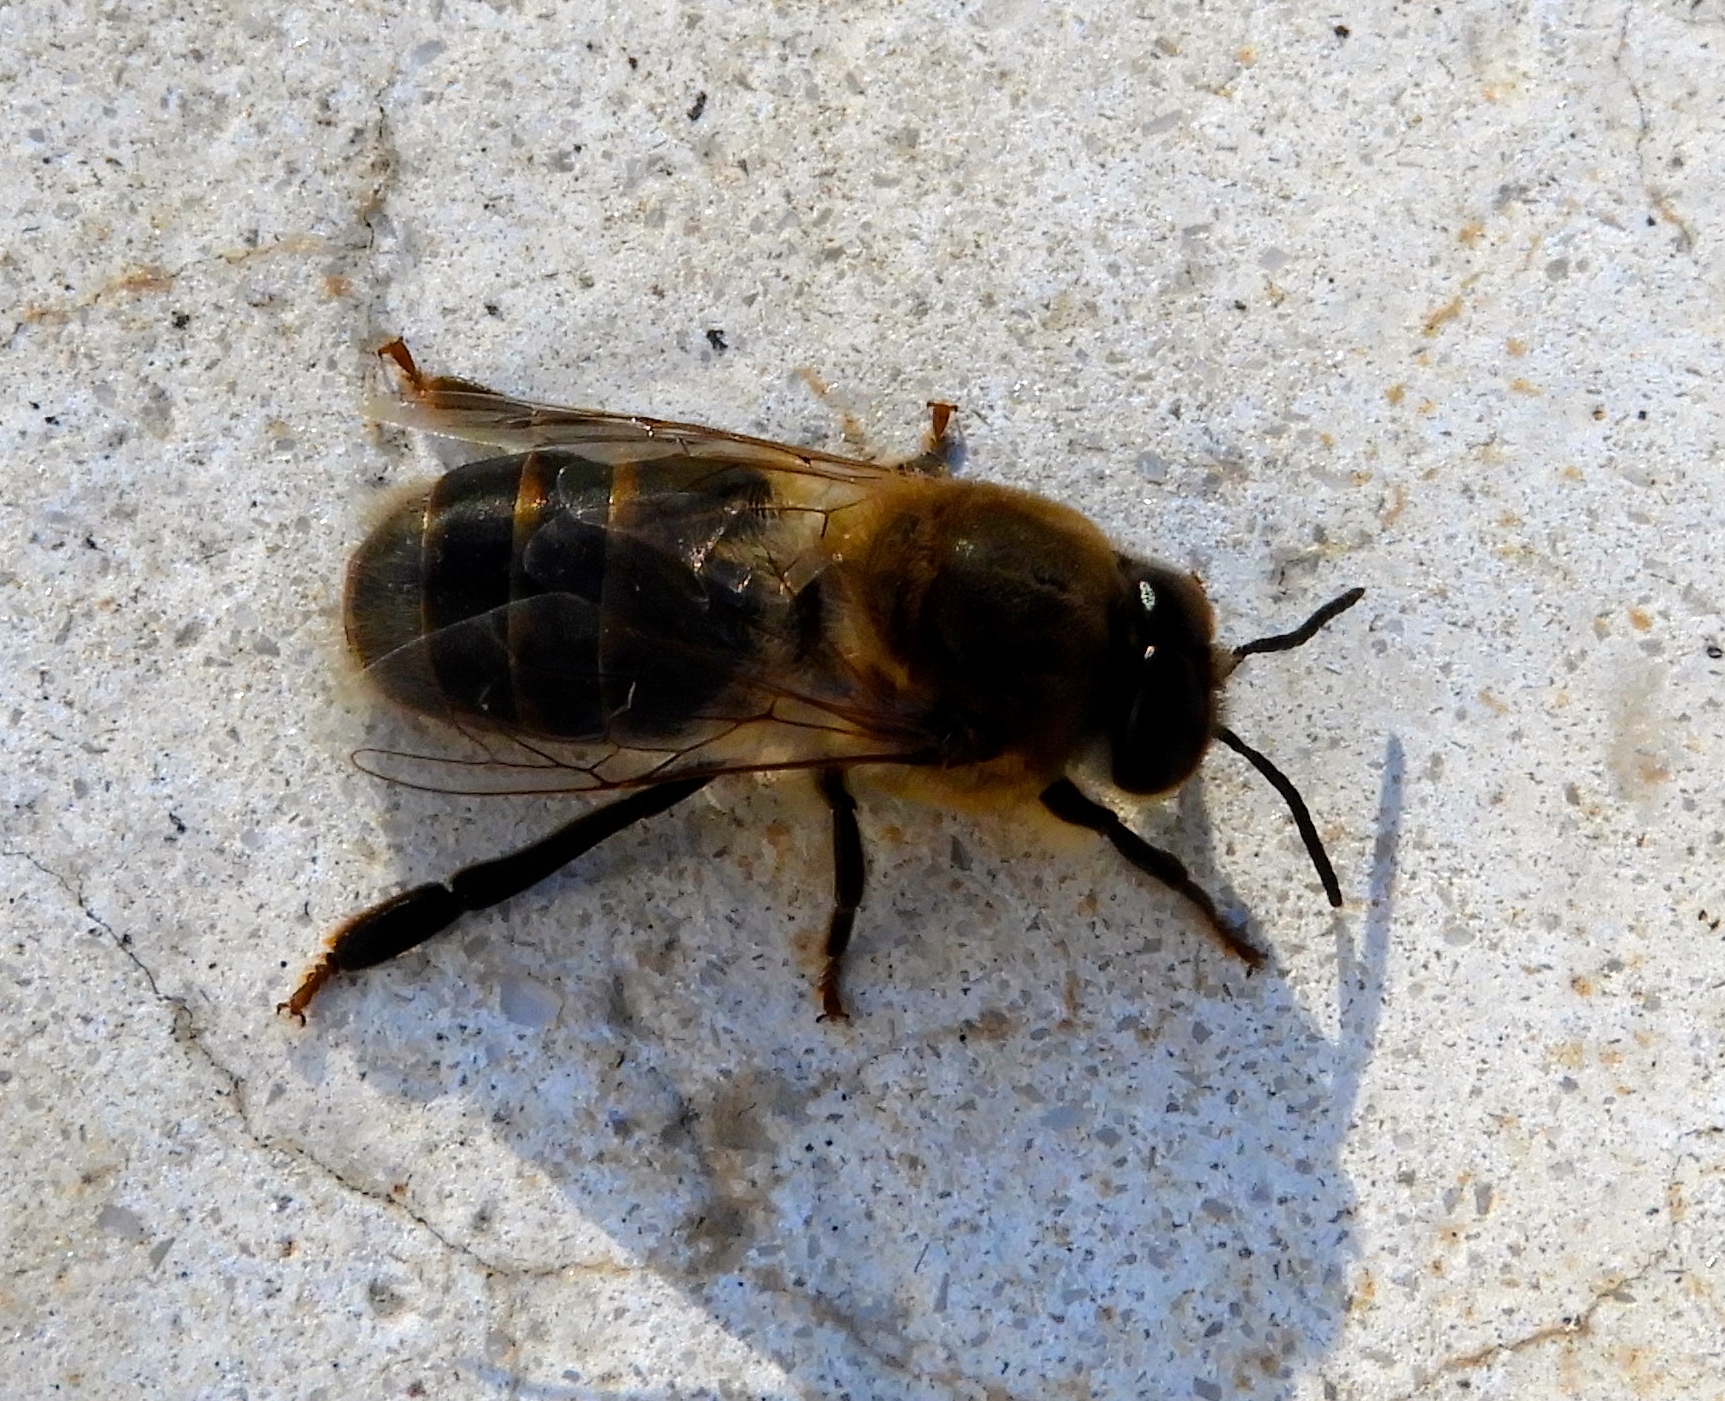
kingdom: Animalia
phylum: Arthropoda
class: Insecta
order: Hymenoptera
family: Apidae
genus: Apis
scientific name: Apis mellifera
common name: Honey bee
